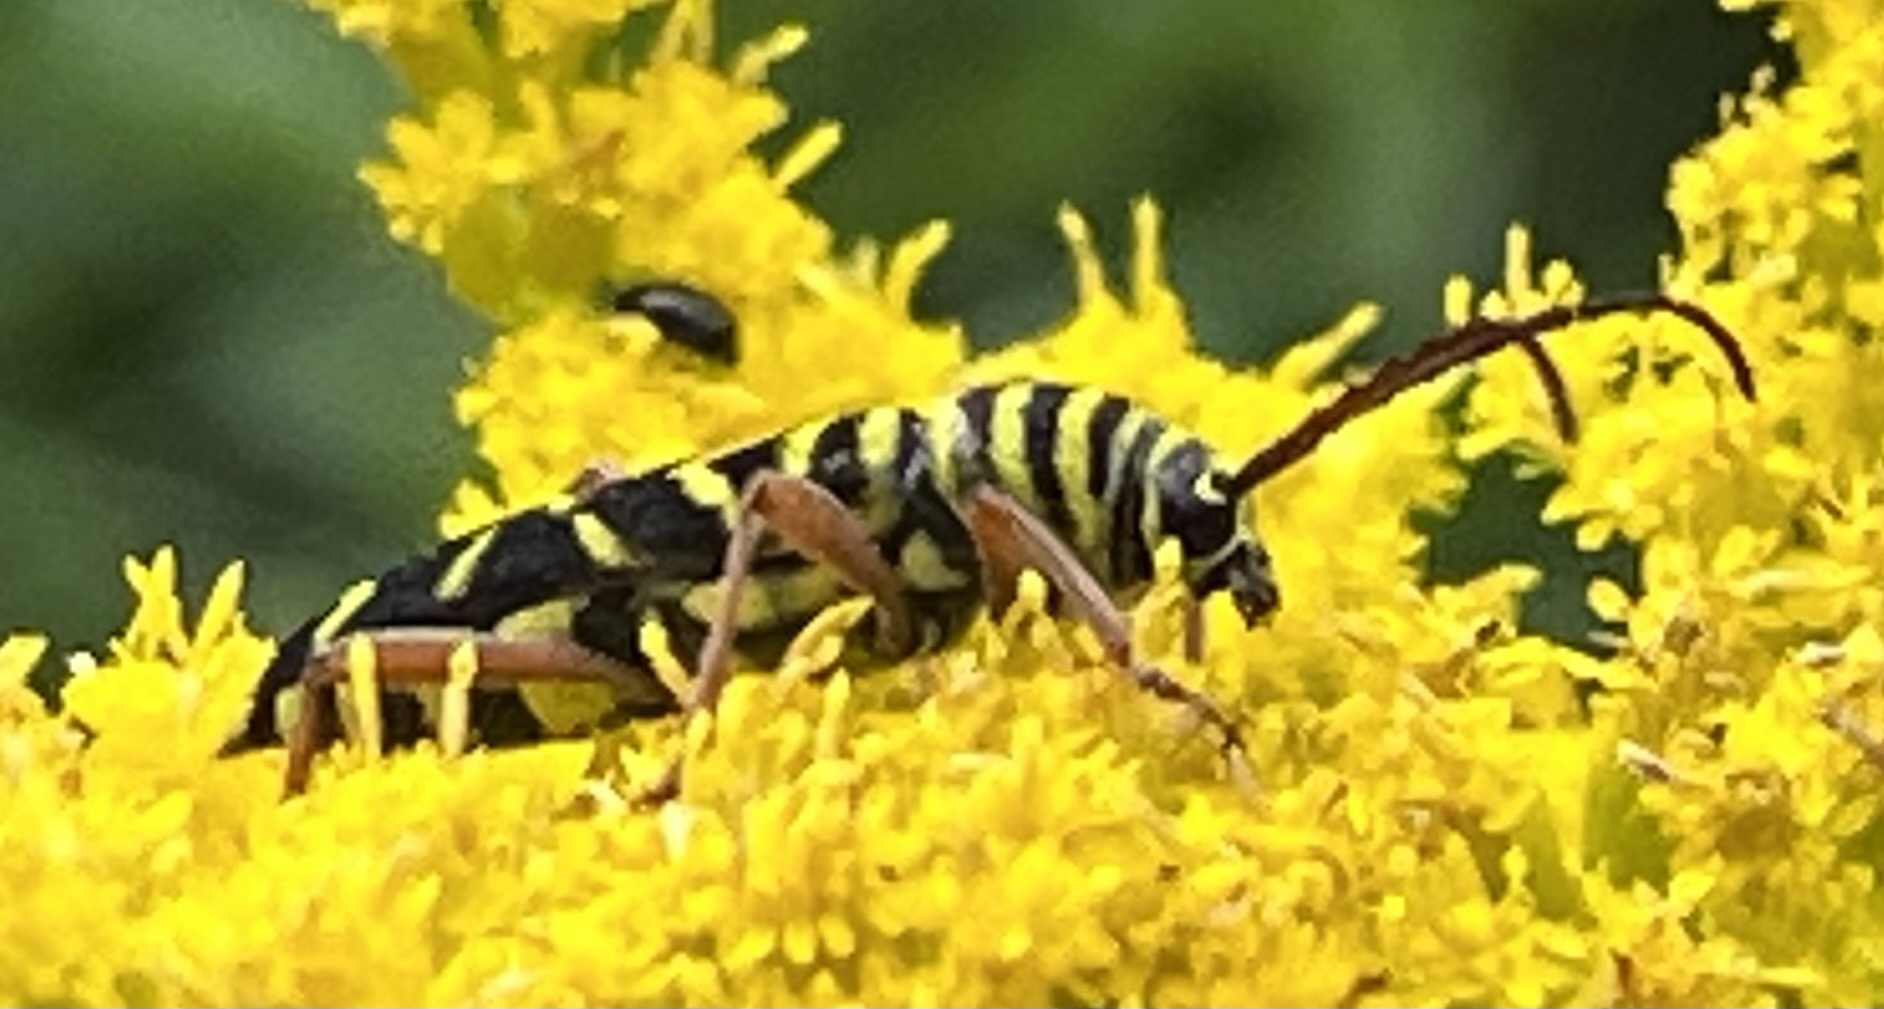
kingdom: Animalia
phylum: Arthropoda
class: Insecta
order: Coleoptera
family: Cerambycidae
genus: Megacyllene
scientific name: Megacyllene robiniae
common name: Locust borer
